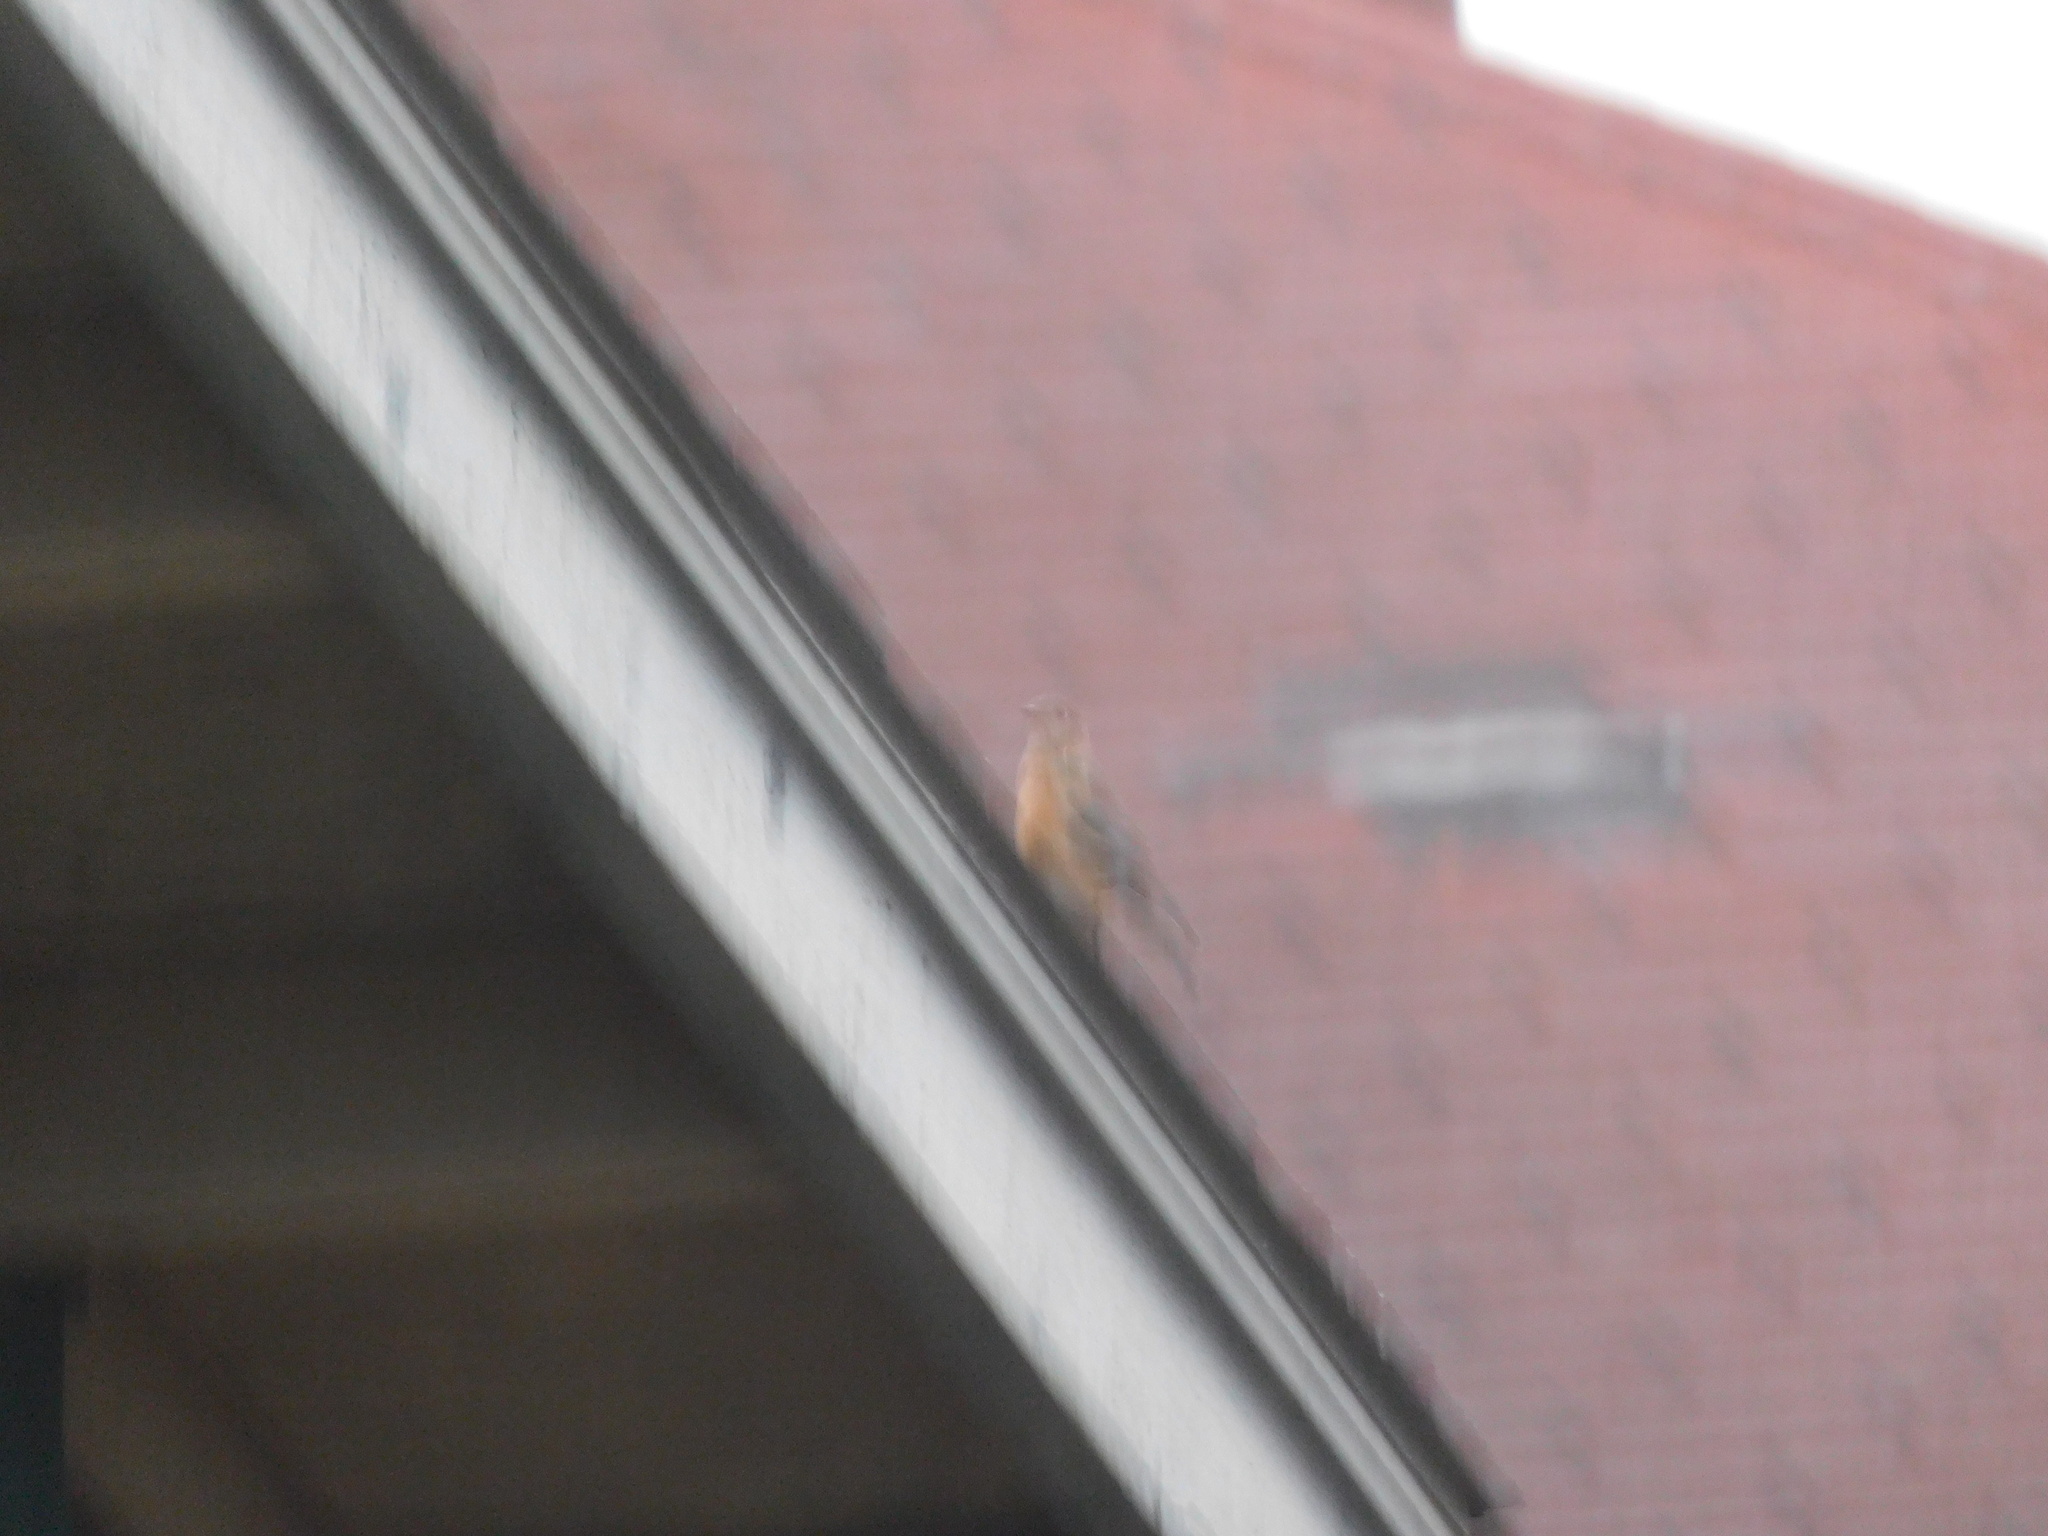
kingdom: Animalia
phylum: Chordata
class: Aves
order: Passeriformes
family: Turdidae
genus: Sialia
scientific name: Sialia sialis
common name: Eastern bluebird
